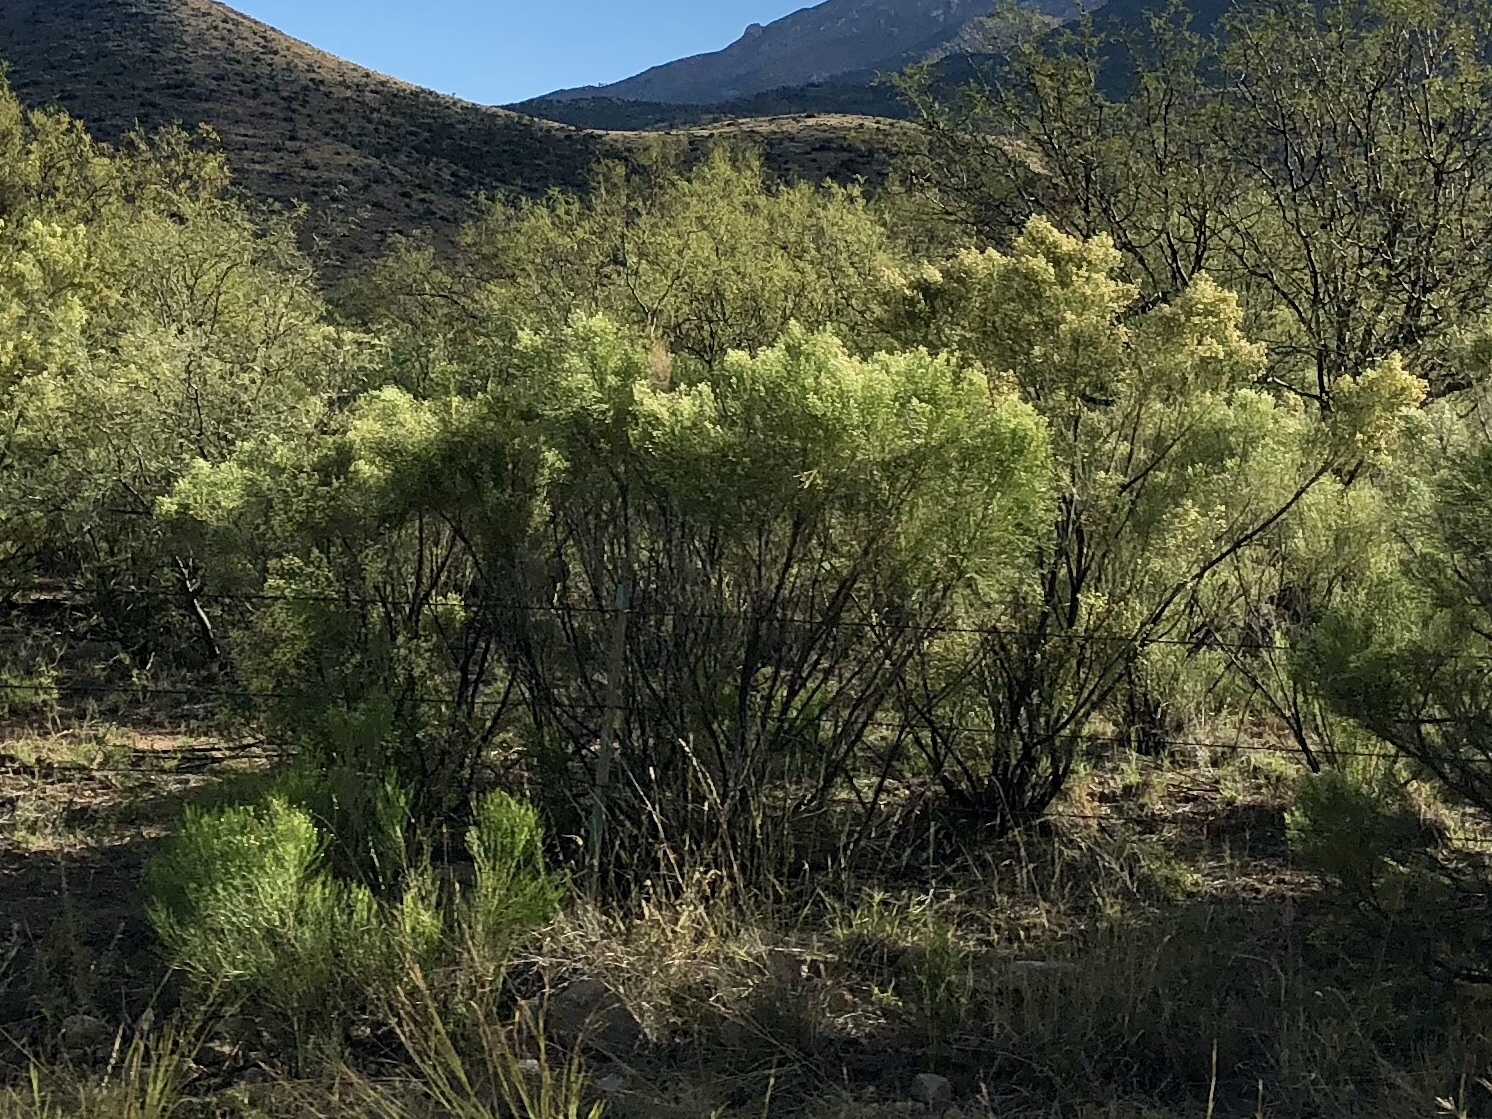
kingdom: Plantae
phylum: Tracheophyta
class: Magnoliopsida
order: Asterales
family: Asteraceae
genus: Baccharis
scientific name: Baccharis sarothroides
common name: Desert-broom
